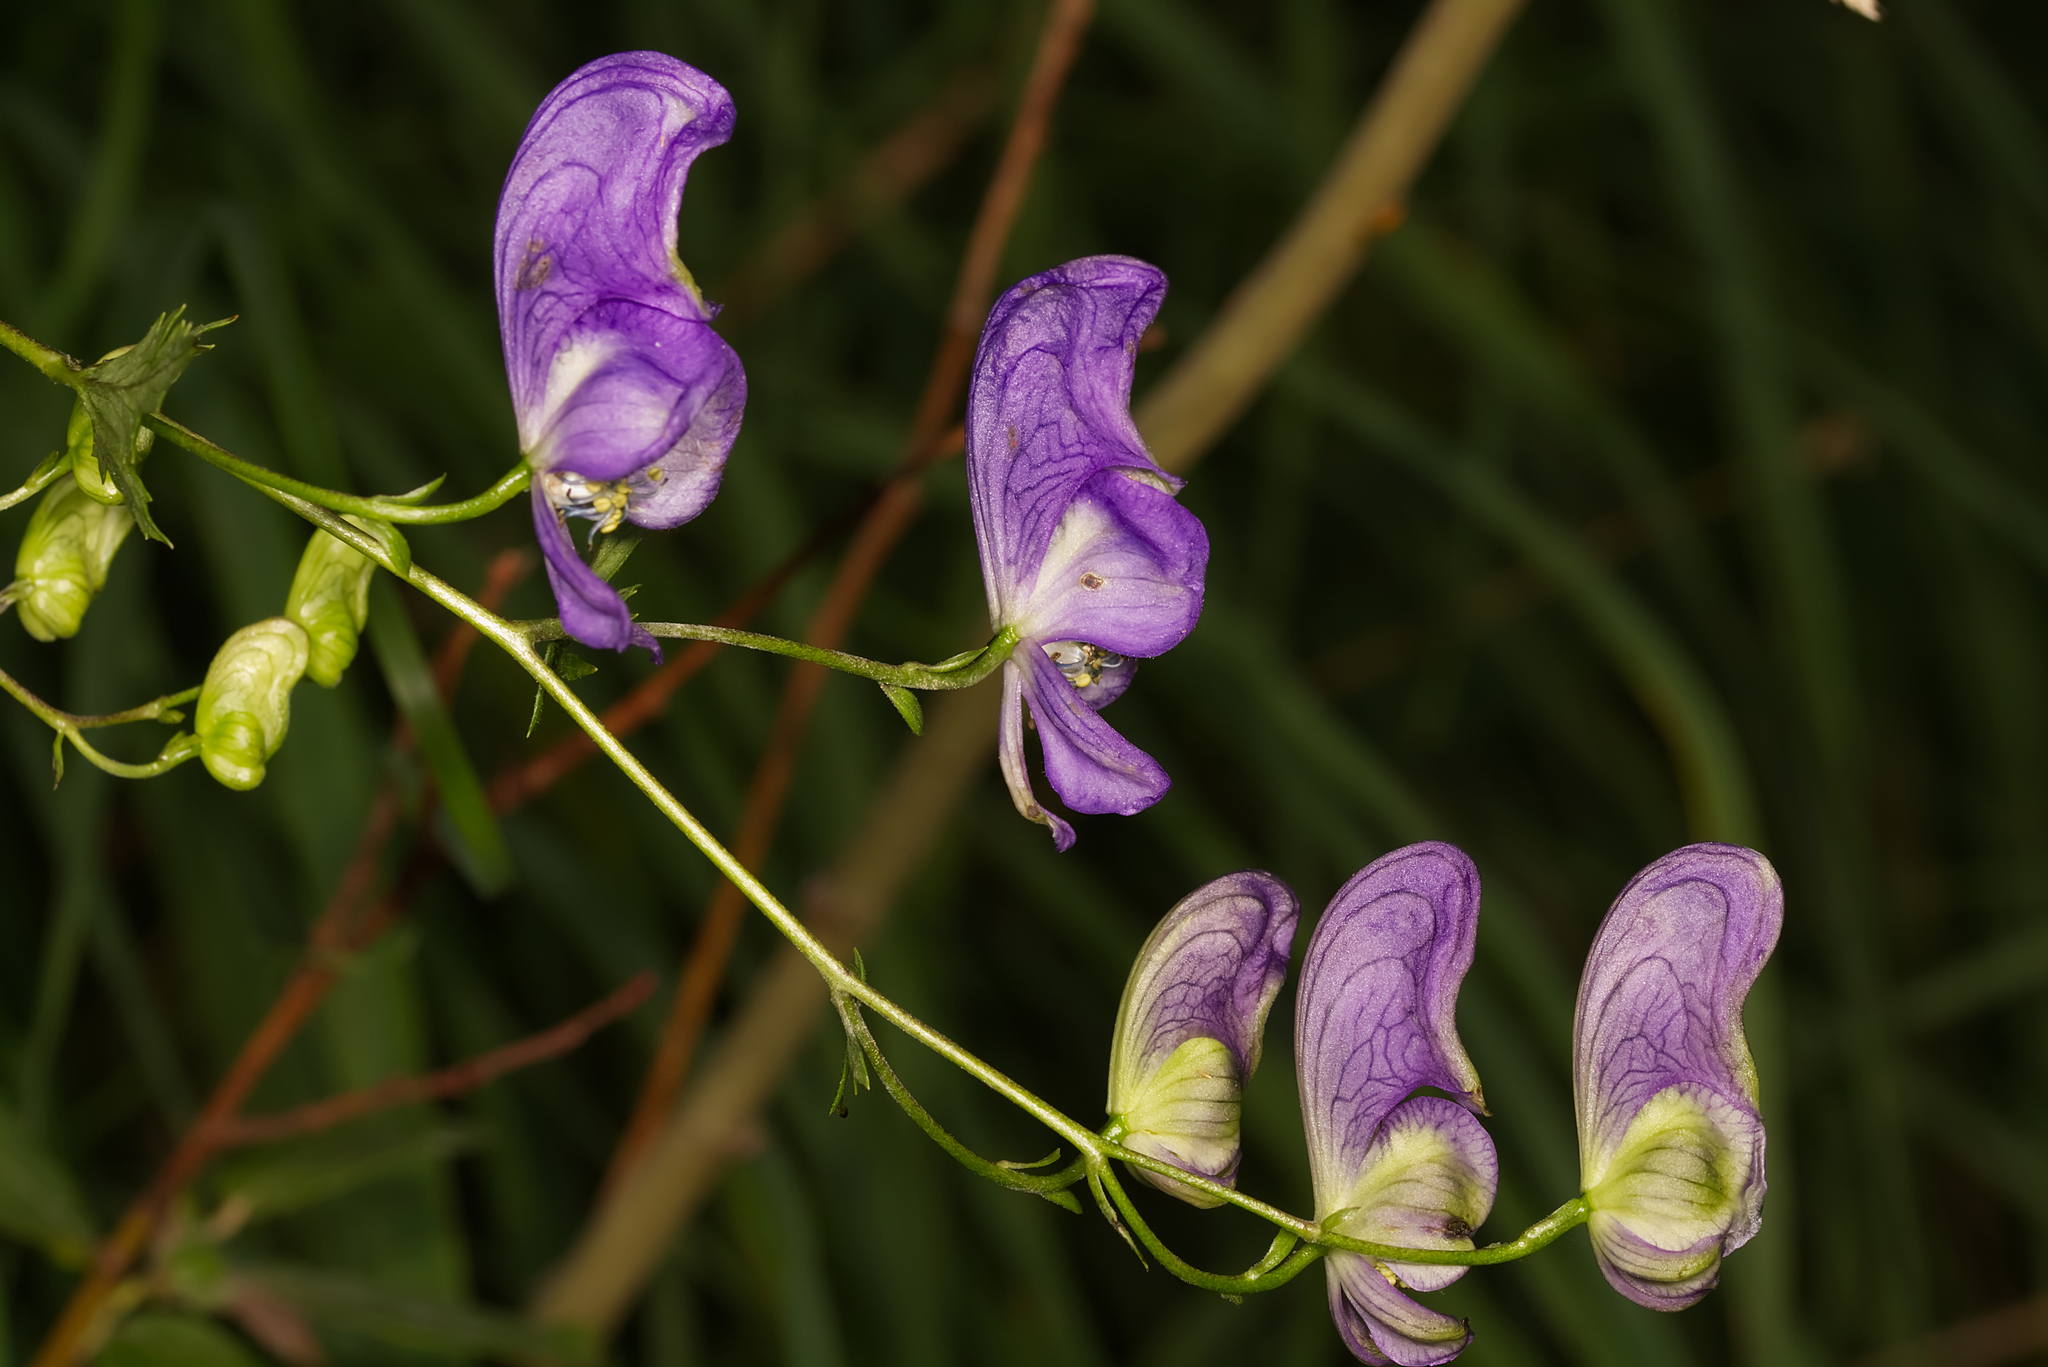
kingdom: Plantae
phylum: Tracheophyta
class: Magnoliopsida
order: Ranunculales
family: Ranunculaceae
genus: Aconitum
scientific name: Aconitum variegatum
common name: Manchurian monkshood
